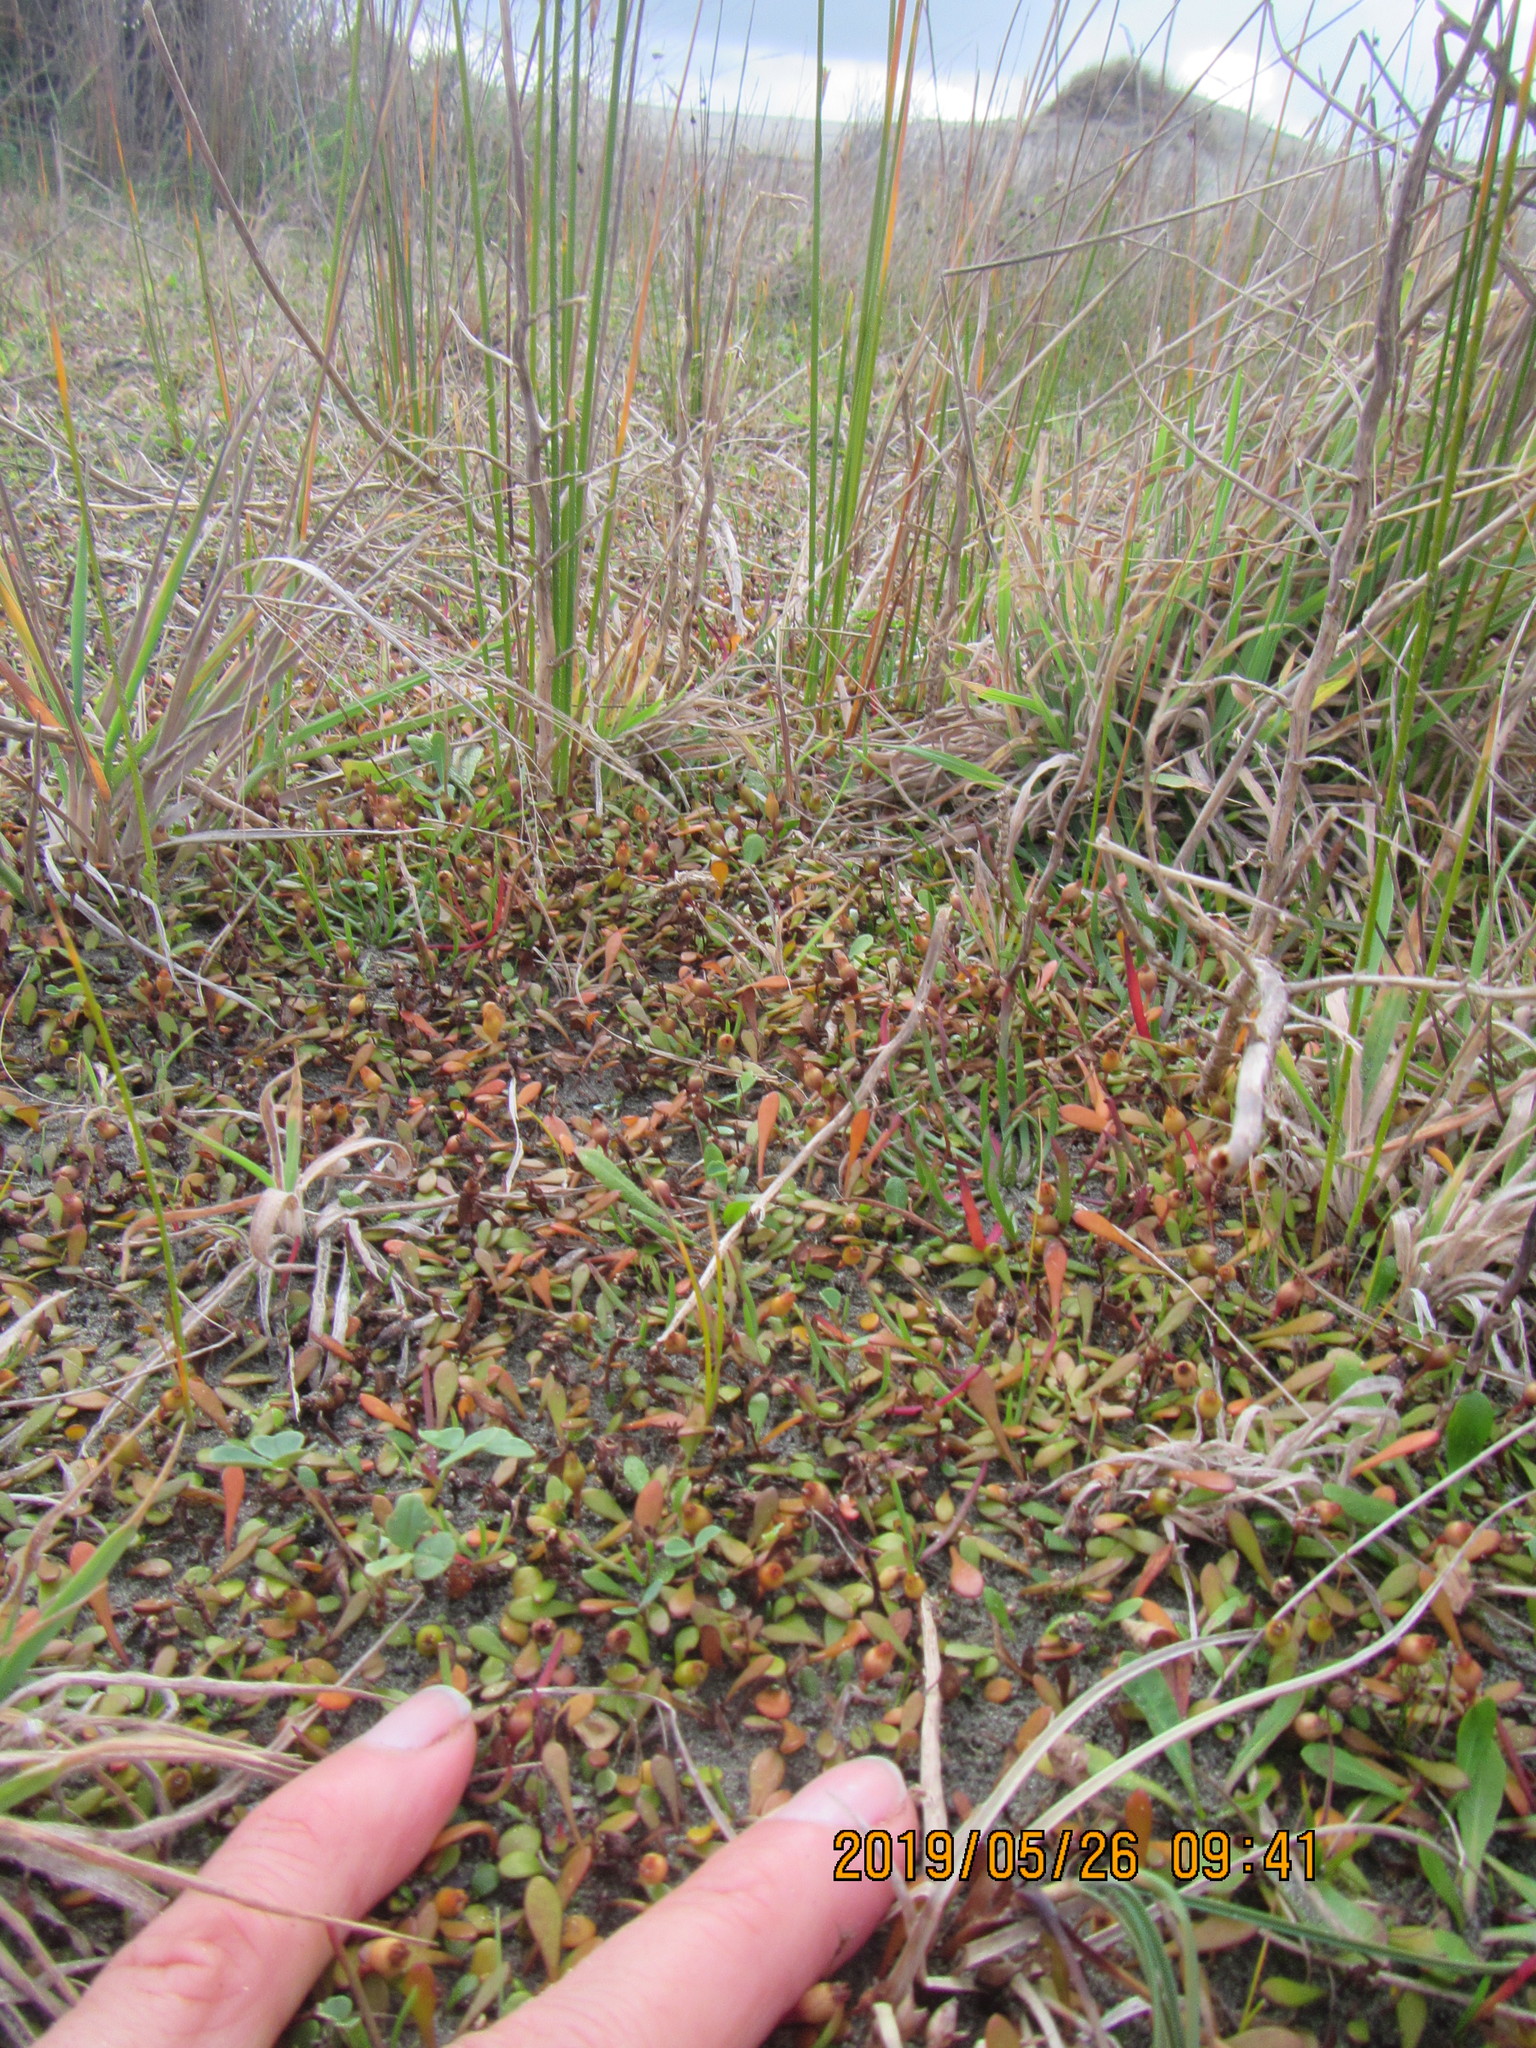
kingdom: Plantae
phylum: Tracheophyta
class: Magnoliopsida
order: Lamiales
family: Plantaginaceae
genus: Plantago
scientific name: Plantago coronopus
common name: Buck's-horn plantain
